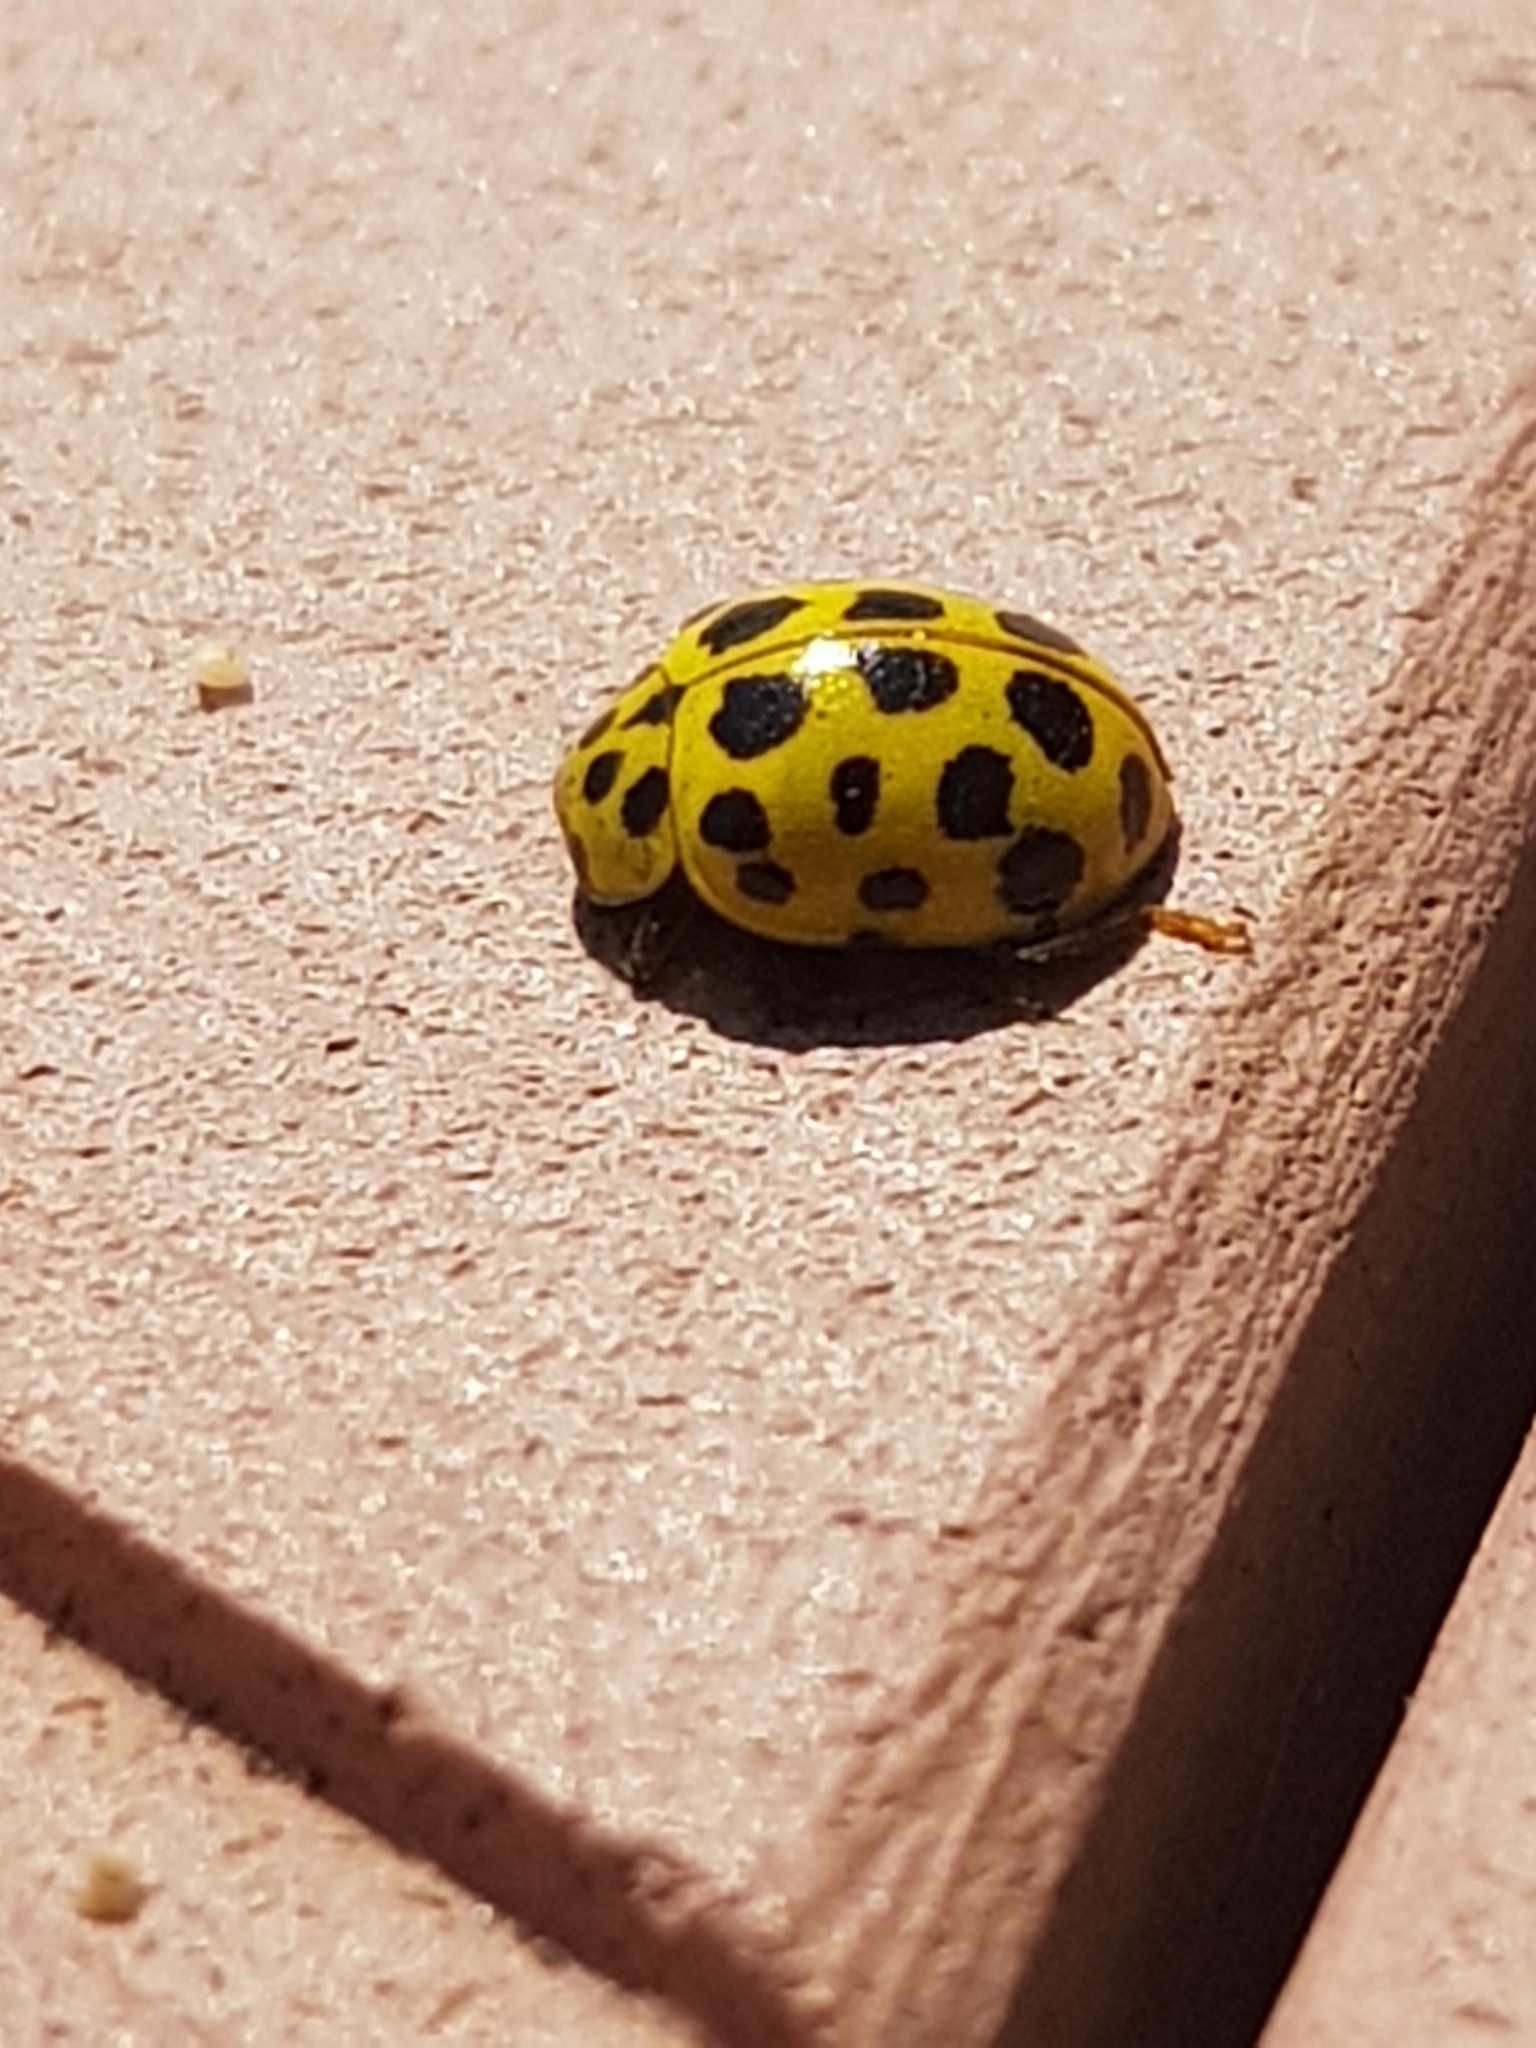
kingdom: Animalia
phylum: Arthropoda
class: Insecta
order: Coleoptera
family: Coccinellidae
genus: Psyllobora
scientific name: Psyllobora vigintiduopunctata
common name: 22-spot ladybird
